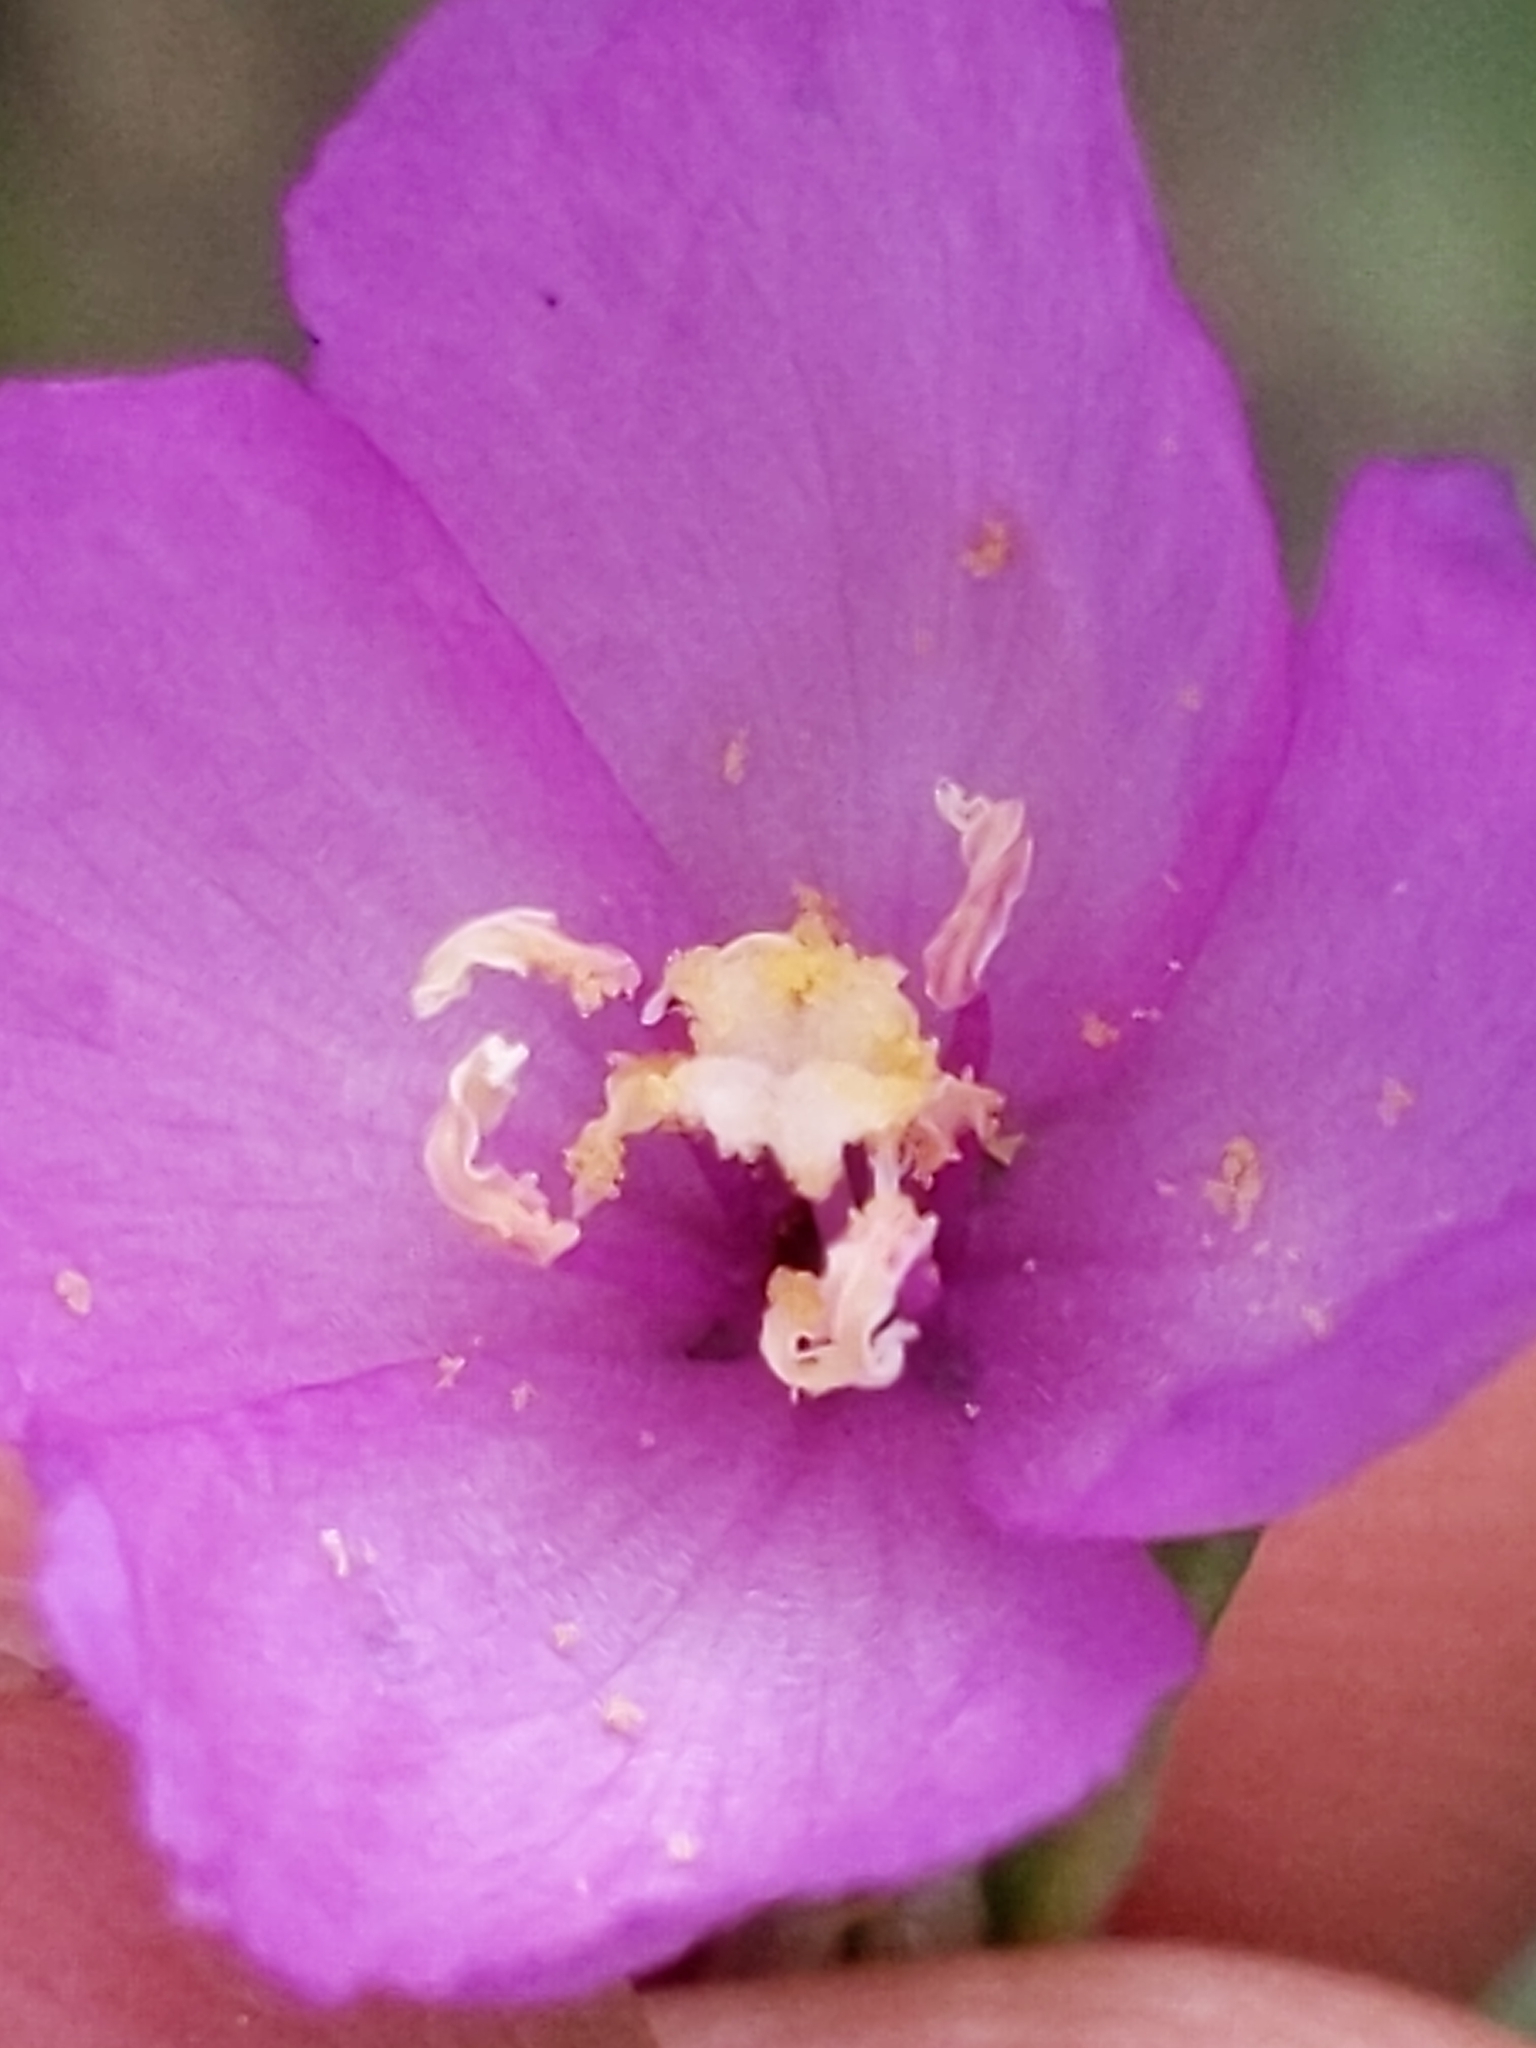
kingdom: Plantae
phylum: Tracheophyta
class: Magnoliopsida
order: Myrtales
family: Onagraceae
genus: Clarkia
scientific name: Clarkia gracilis
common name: Graceful clarkia
